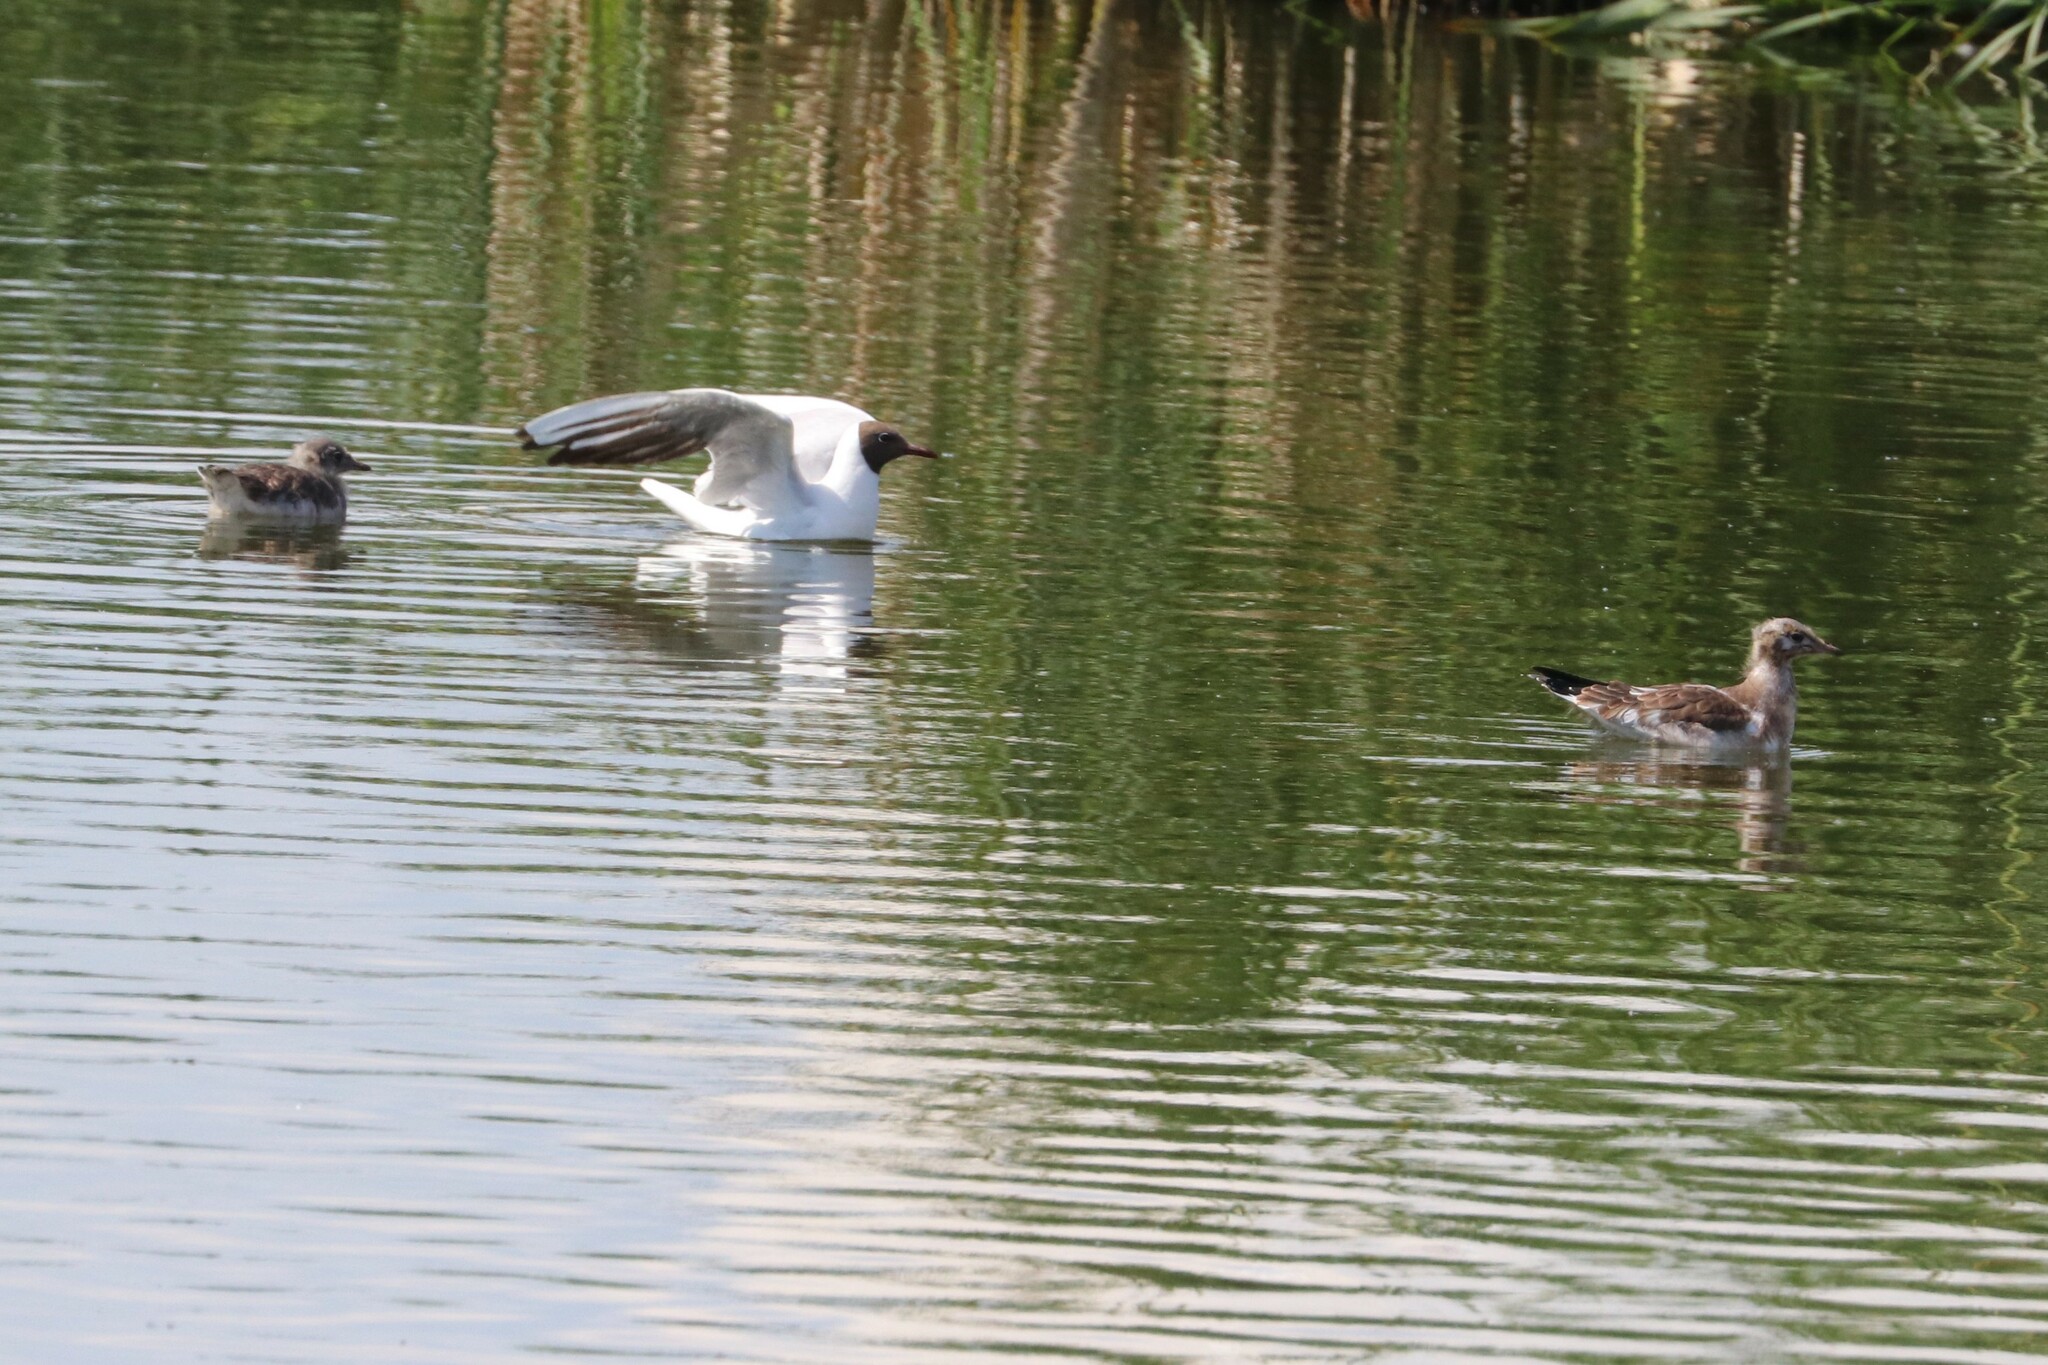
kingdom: Animalia
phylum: Chordata
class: Aves
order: Charadriiformes
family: Laridae
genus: Chroicocephalus
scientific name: Chroicocephalus ridibundus
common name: Black-headed gull
